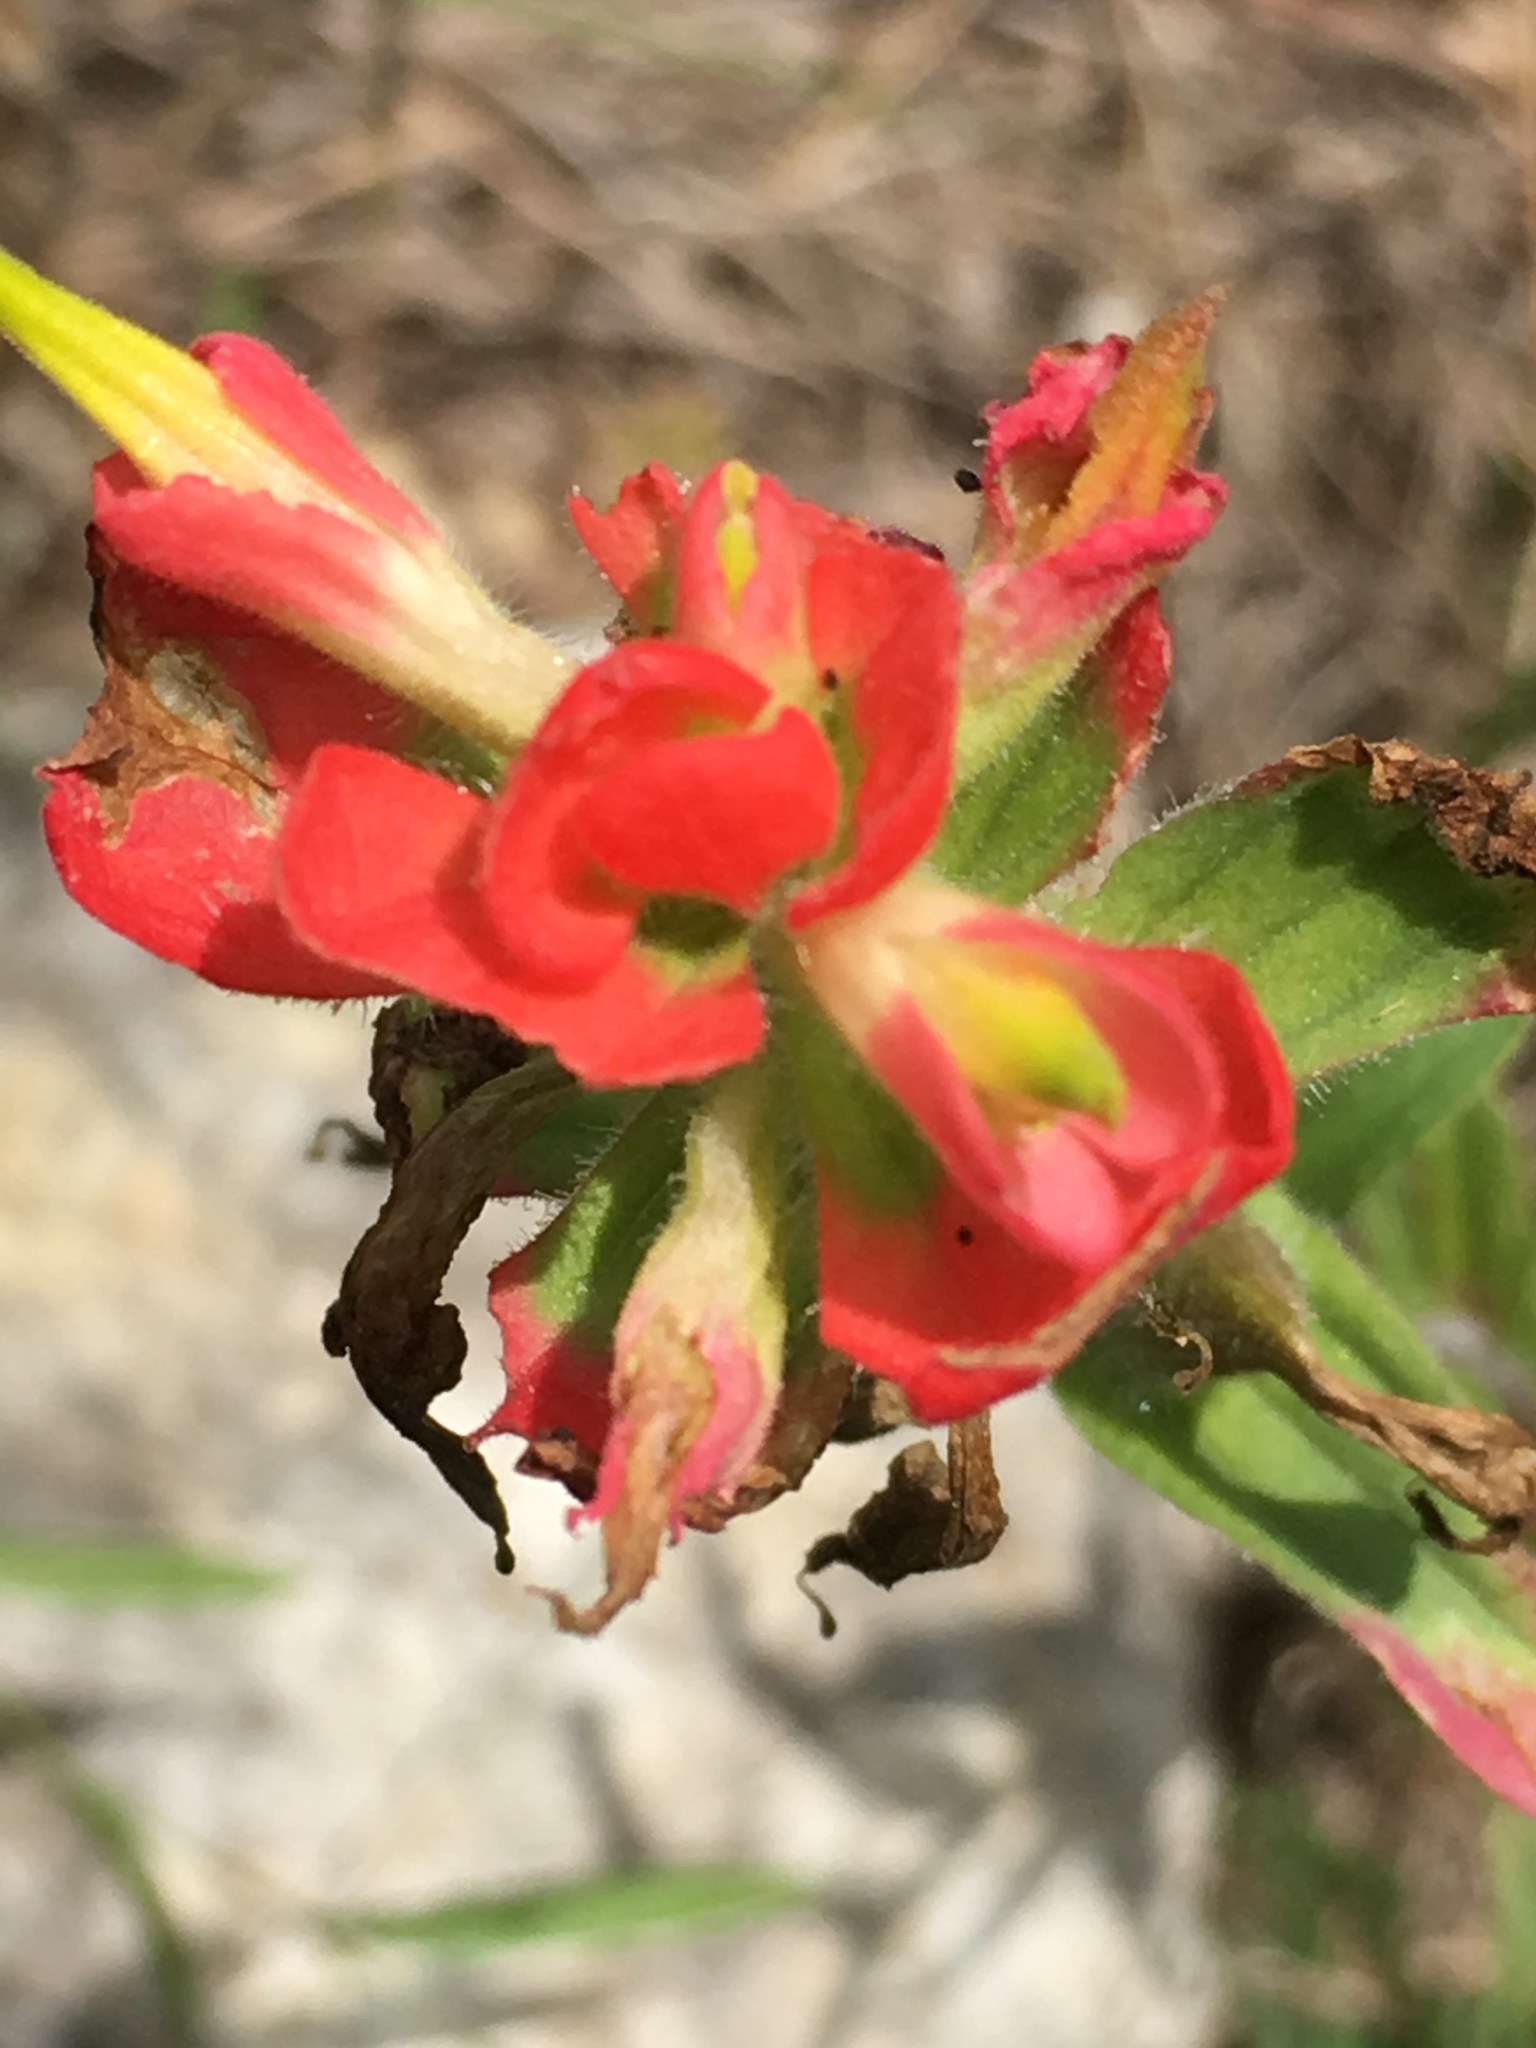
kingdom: Plantae
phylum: Tracheophyta
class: Magnoliopsida
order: Lamiales
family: Orobanchaceae
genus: Castilleja
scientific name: Castilleja indivisa
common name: Texas paintbrush
